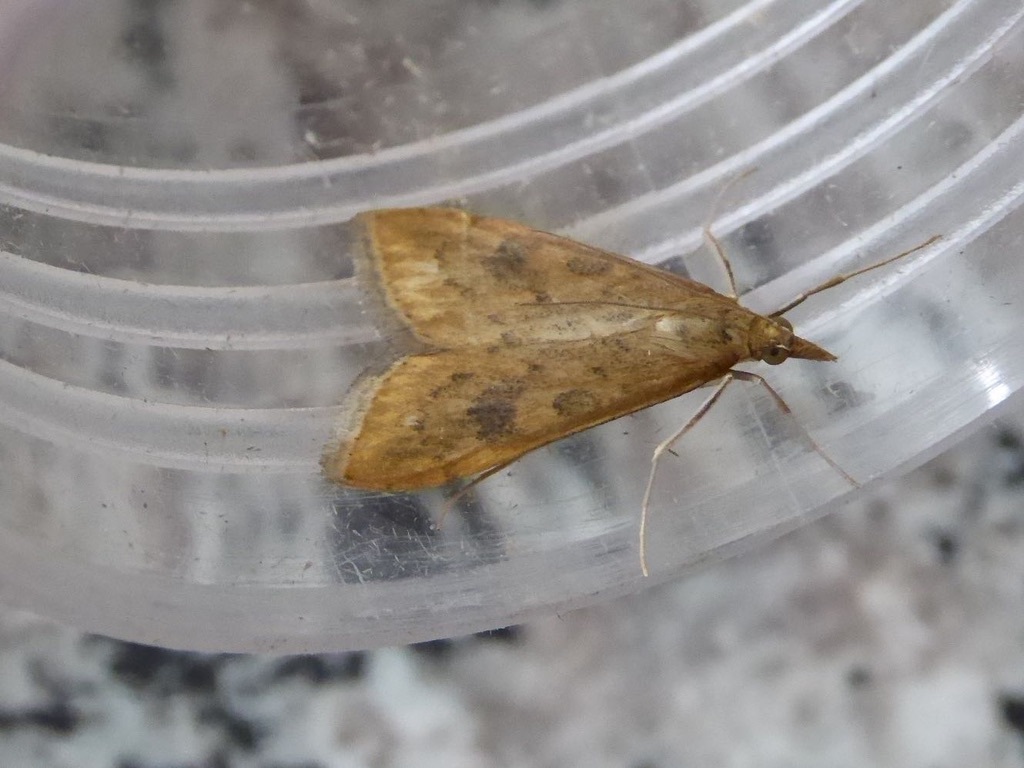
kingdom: Animalia
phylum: Arthropoda
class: Insecta
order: Lepidoptera
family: Crambidae
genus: Udea
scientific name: Udea ferrugalis
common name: Rusty dot
